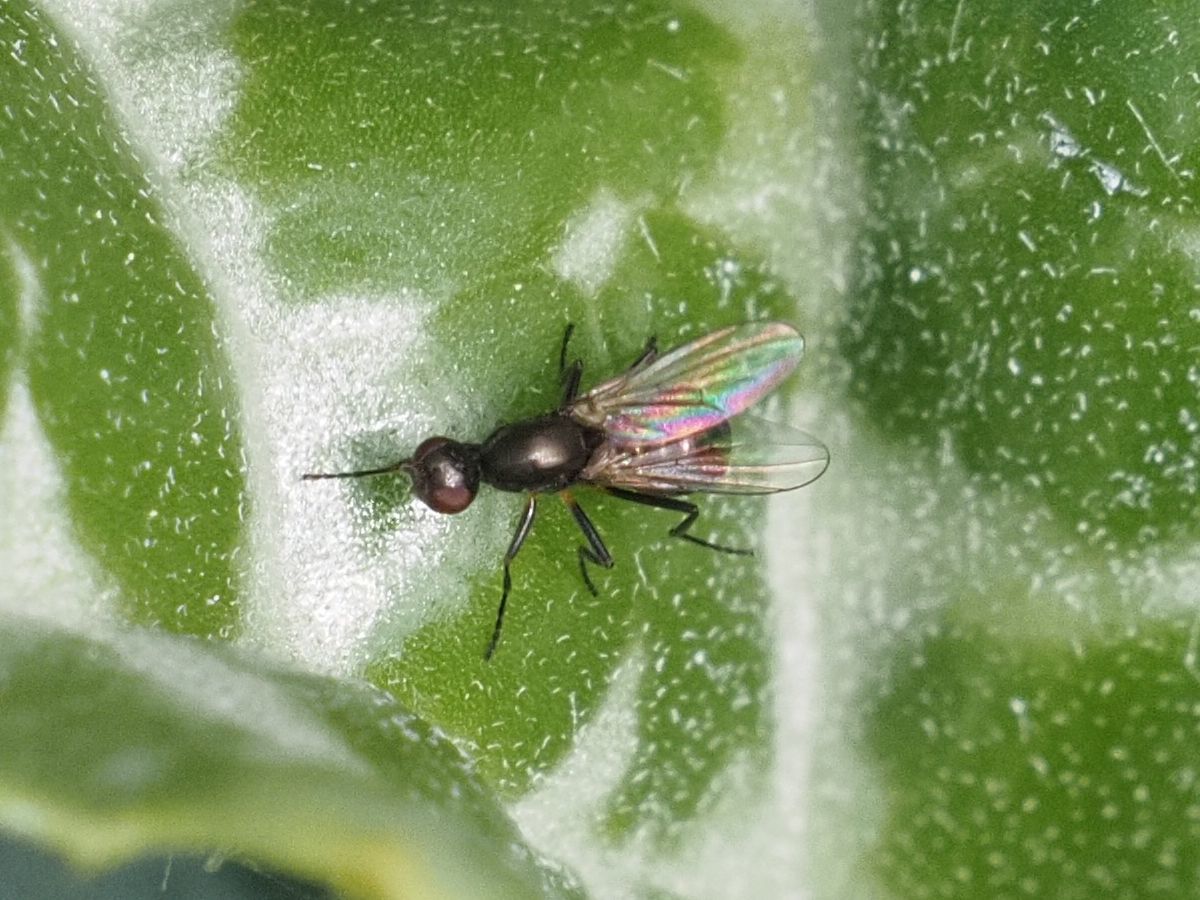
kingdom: Animalia
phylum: Arthropoda
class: Insecta
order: Diptera
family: Sepsidae
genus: Nemopoda
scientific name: Nemopoda nitidula
